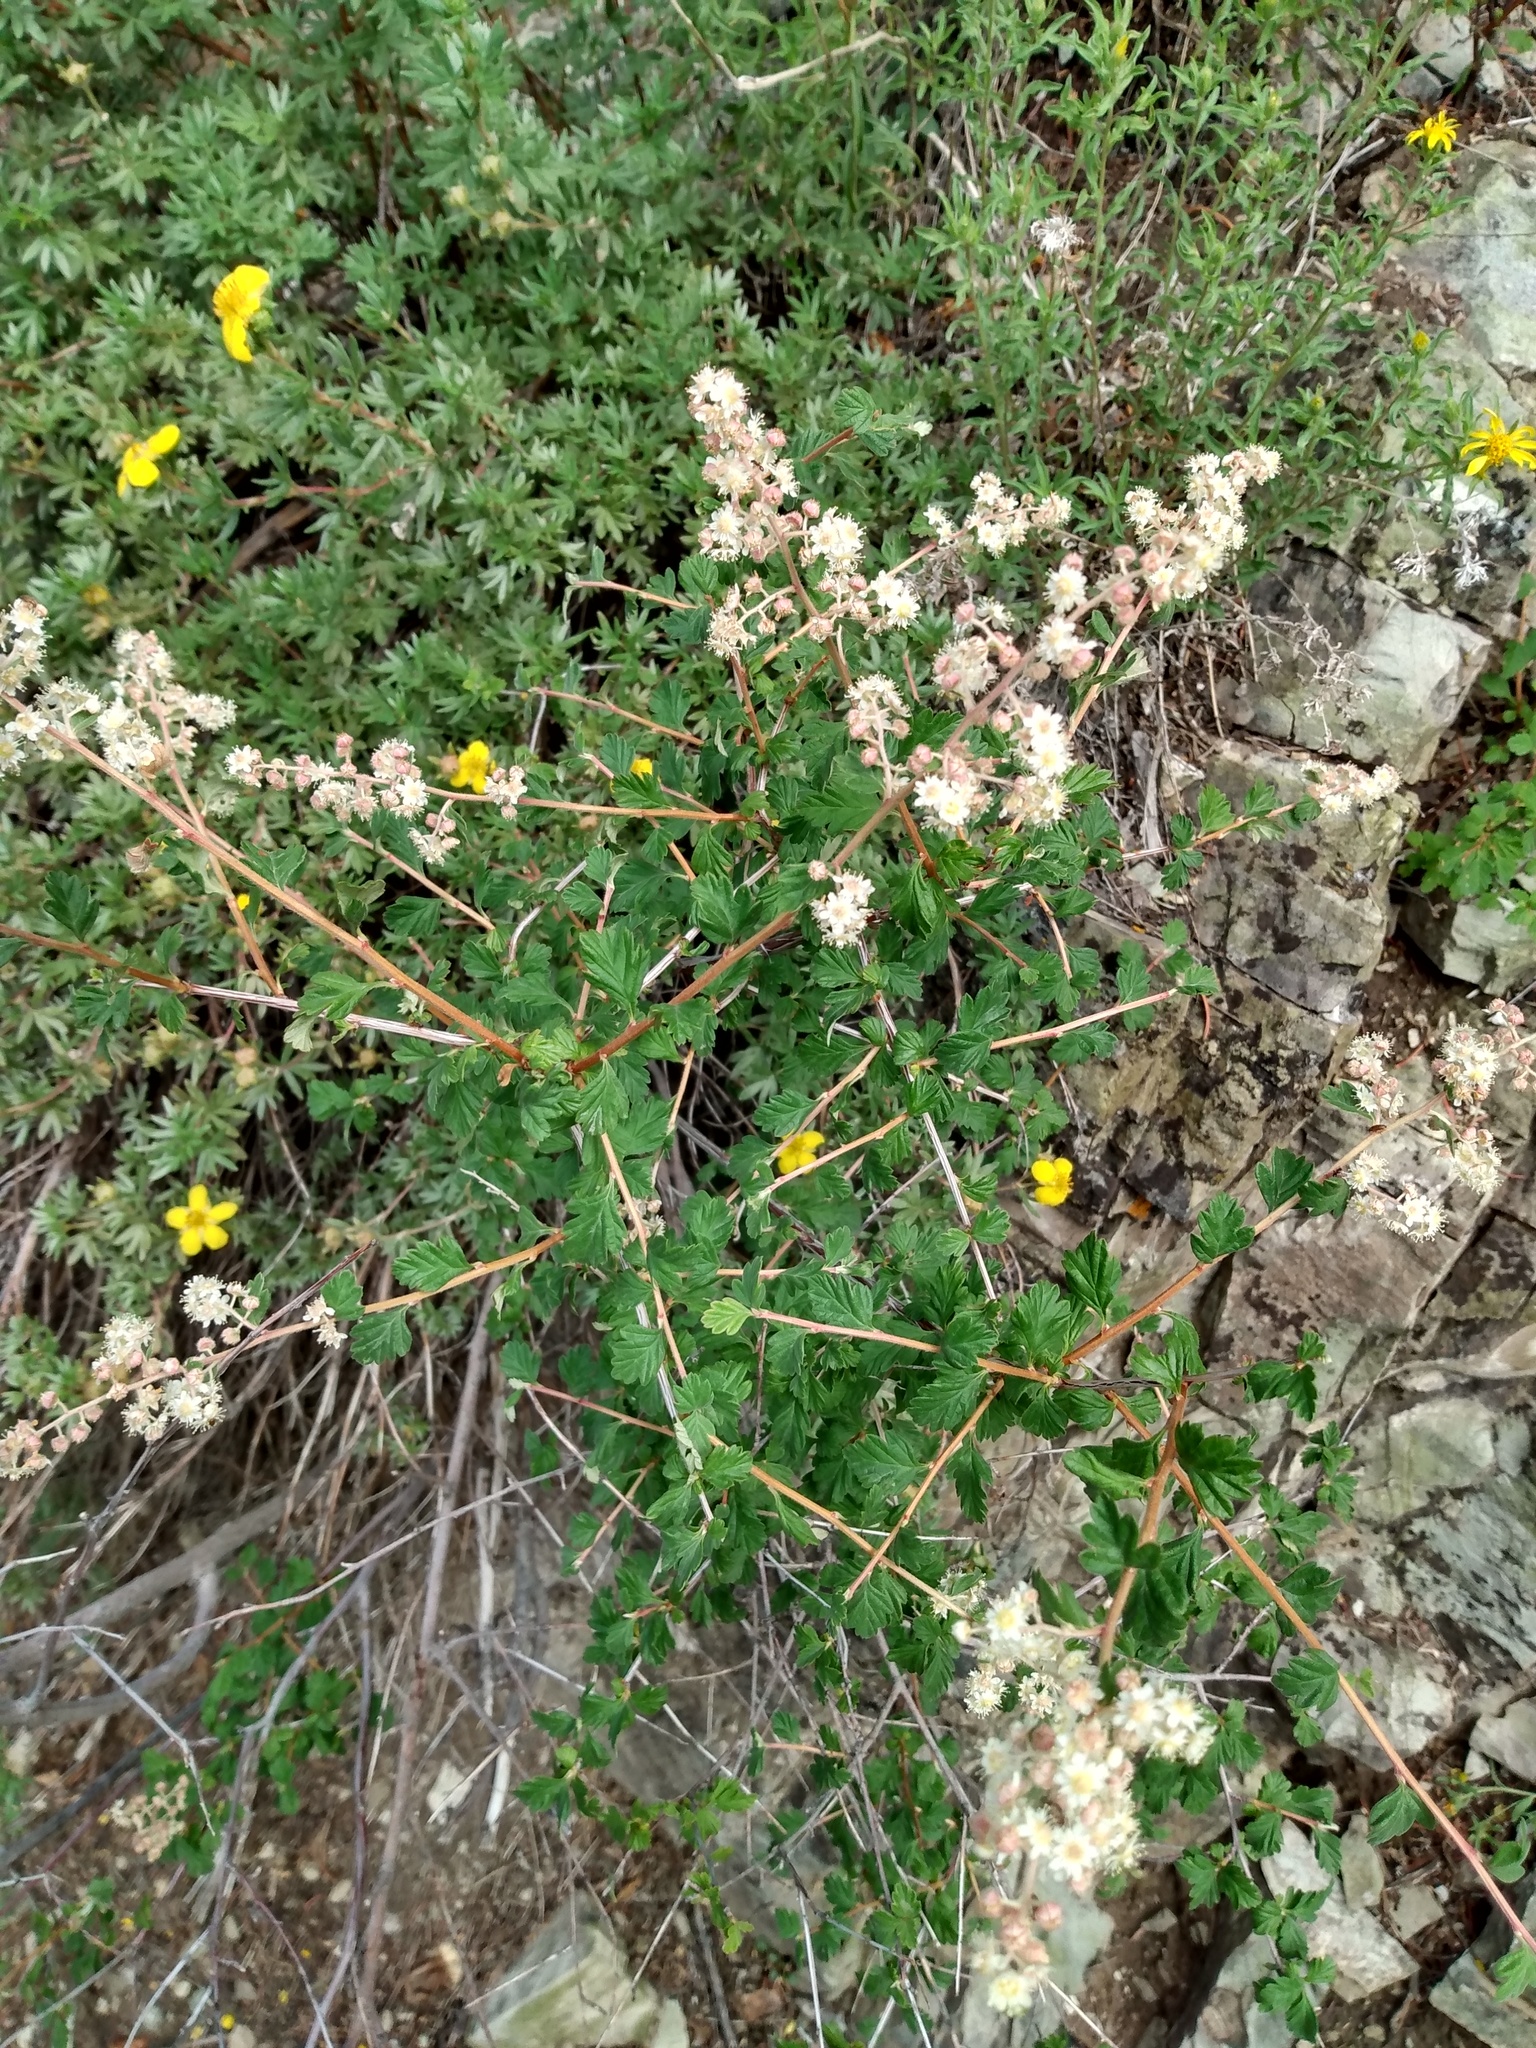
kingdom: Plantae
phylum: Tracheophyta
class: Magnoliopsida
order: Rosales
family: Rosaceae
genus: Holodiscus
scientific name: Holodiscus discolor
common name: Oceanspray
